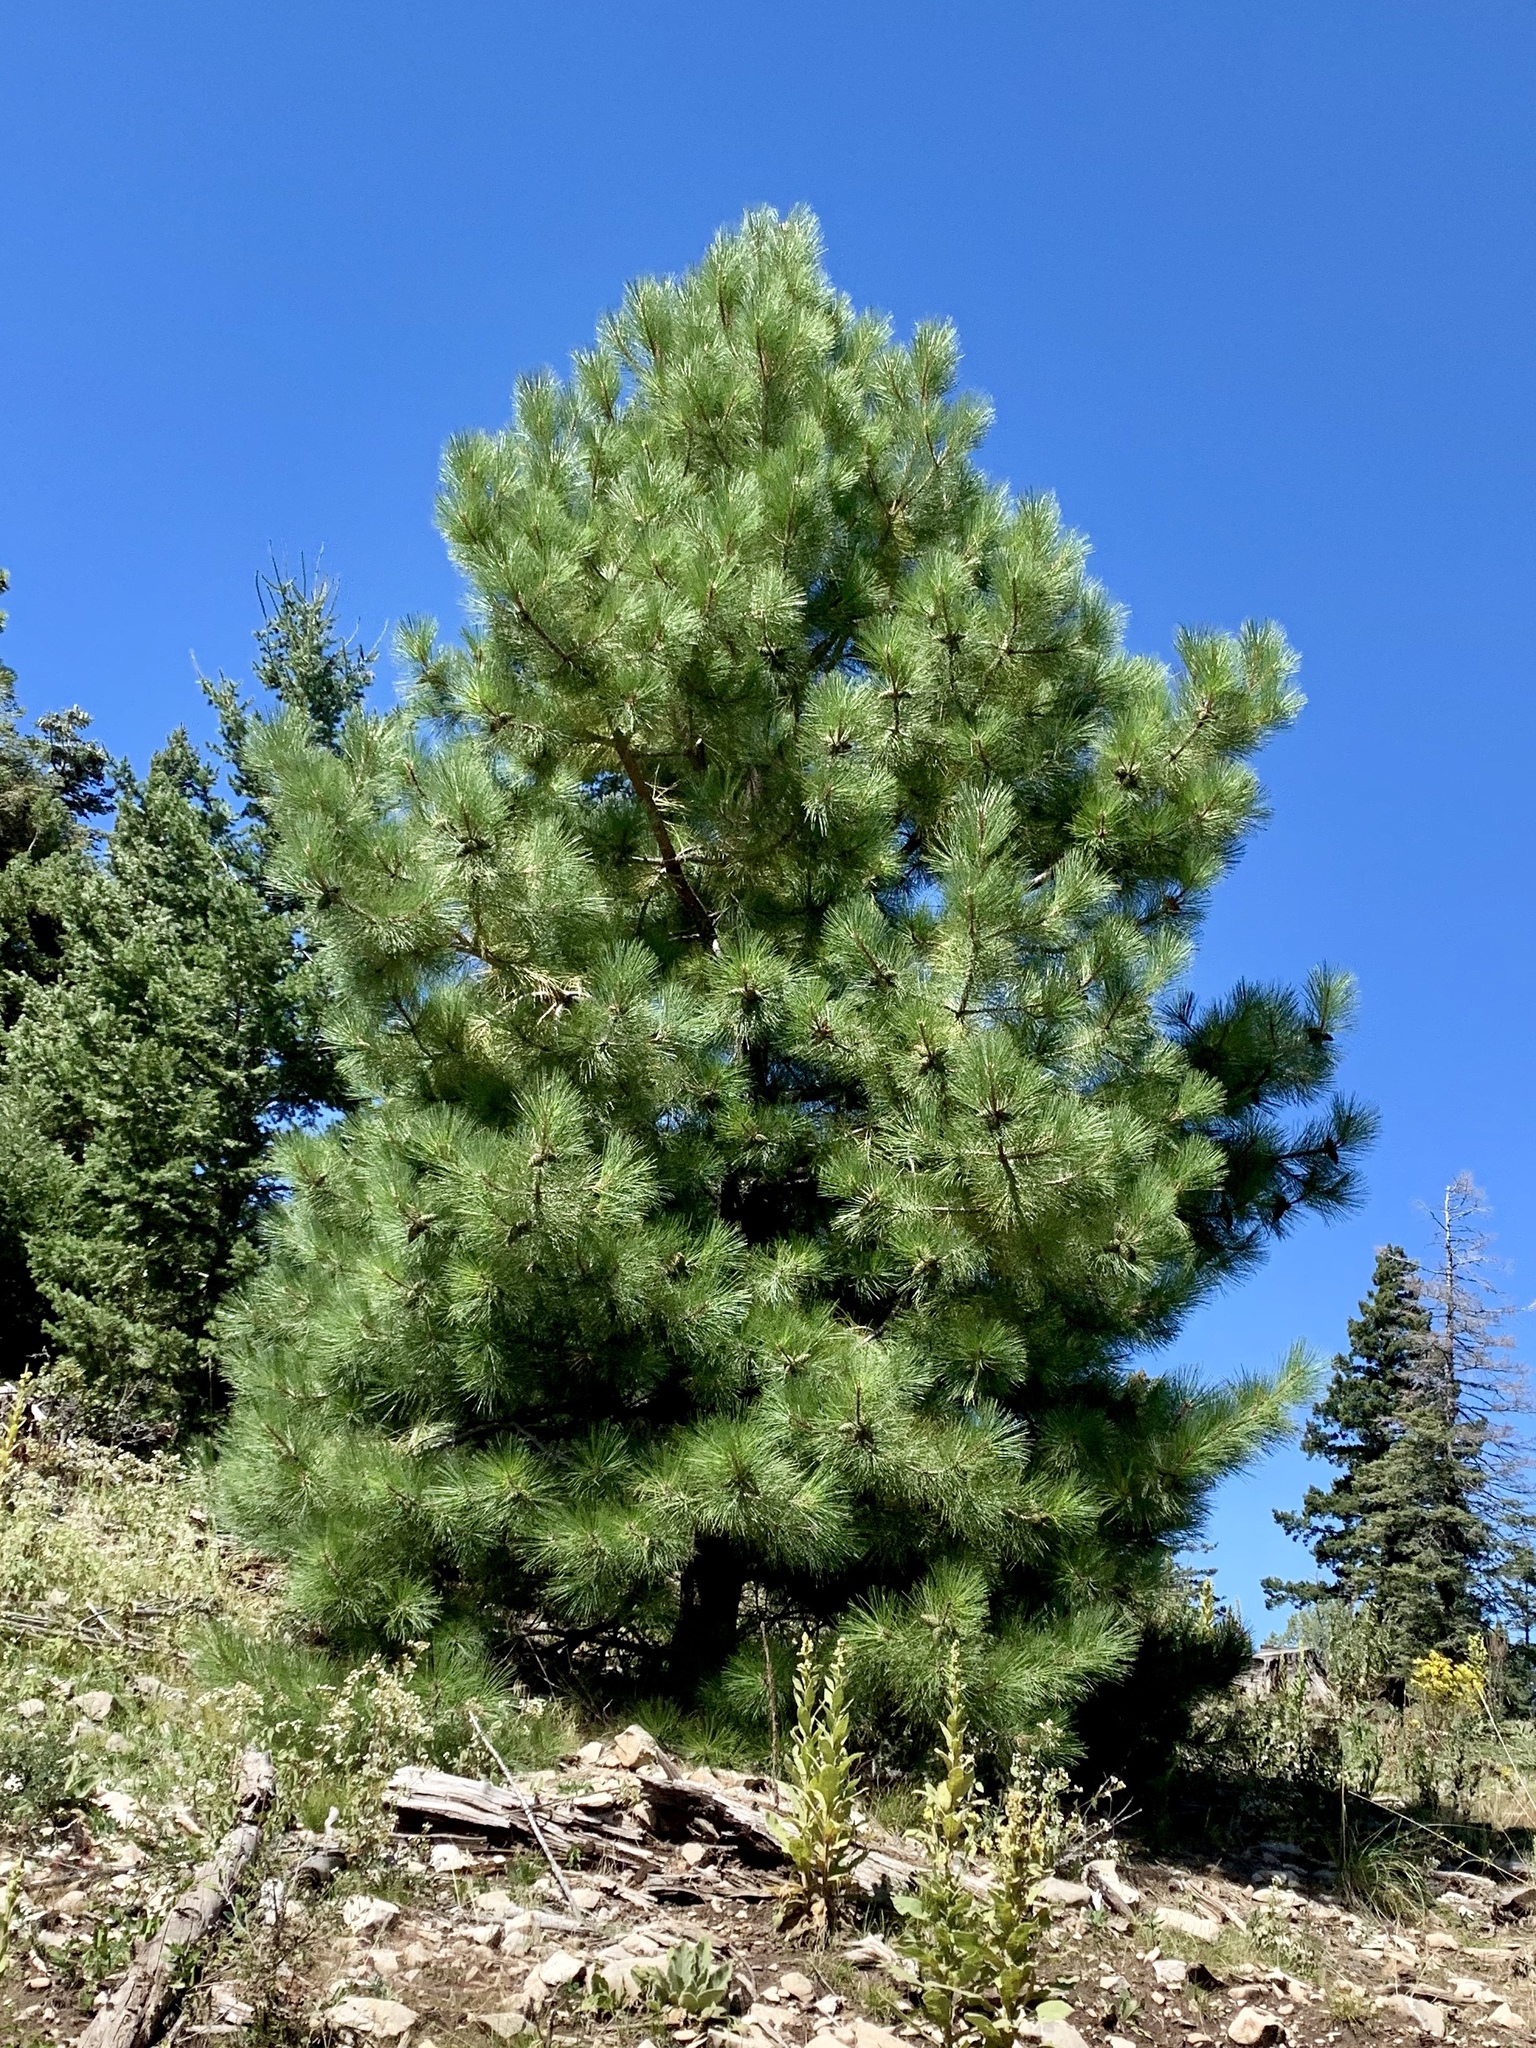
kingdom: Plantae
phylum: Tracheophyta
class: Pinopsida
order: Pinales
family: Pinaceae
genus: Pinus
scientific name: Pinus ponderosa
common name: Western yellow-pine
